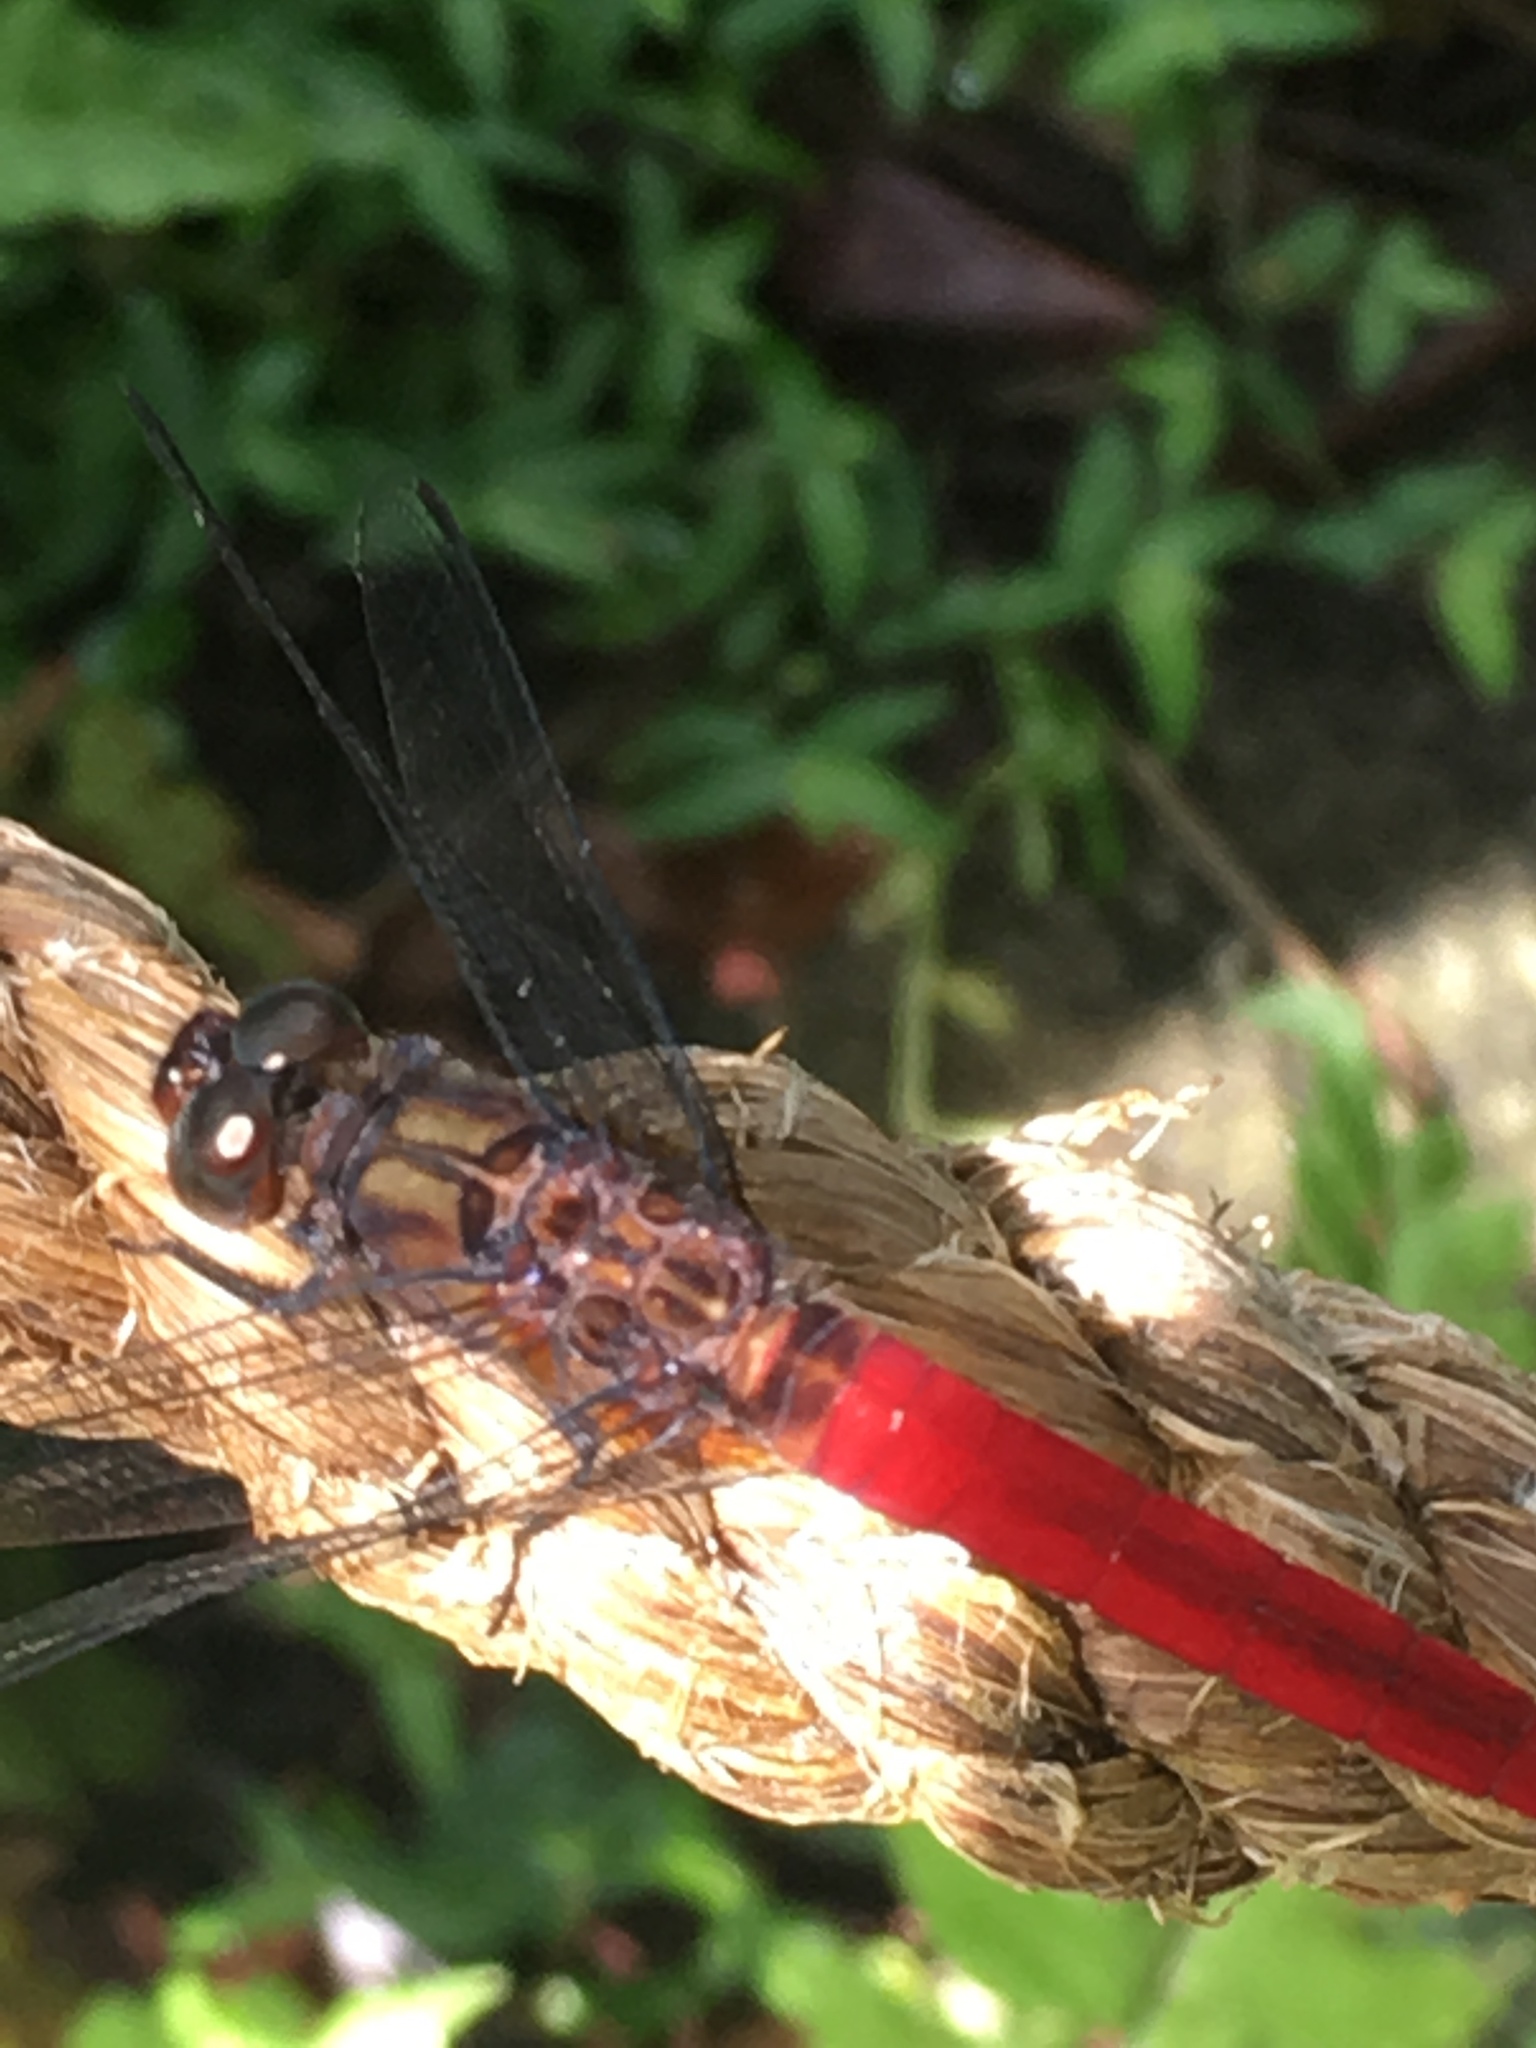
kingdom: Animalia
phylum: Arthropoda
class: Insecta
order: Odonata
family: Libellulidae
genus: Orthetrum
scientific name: Orthetrum chrysis
